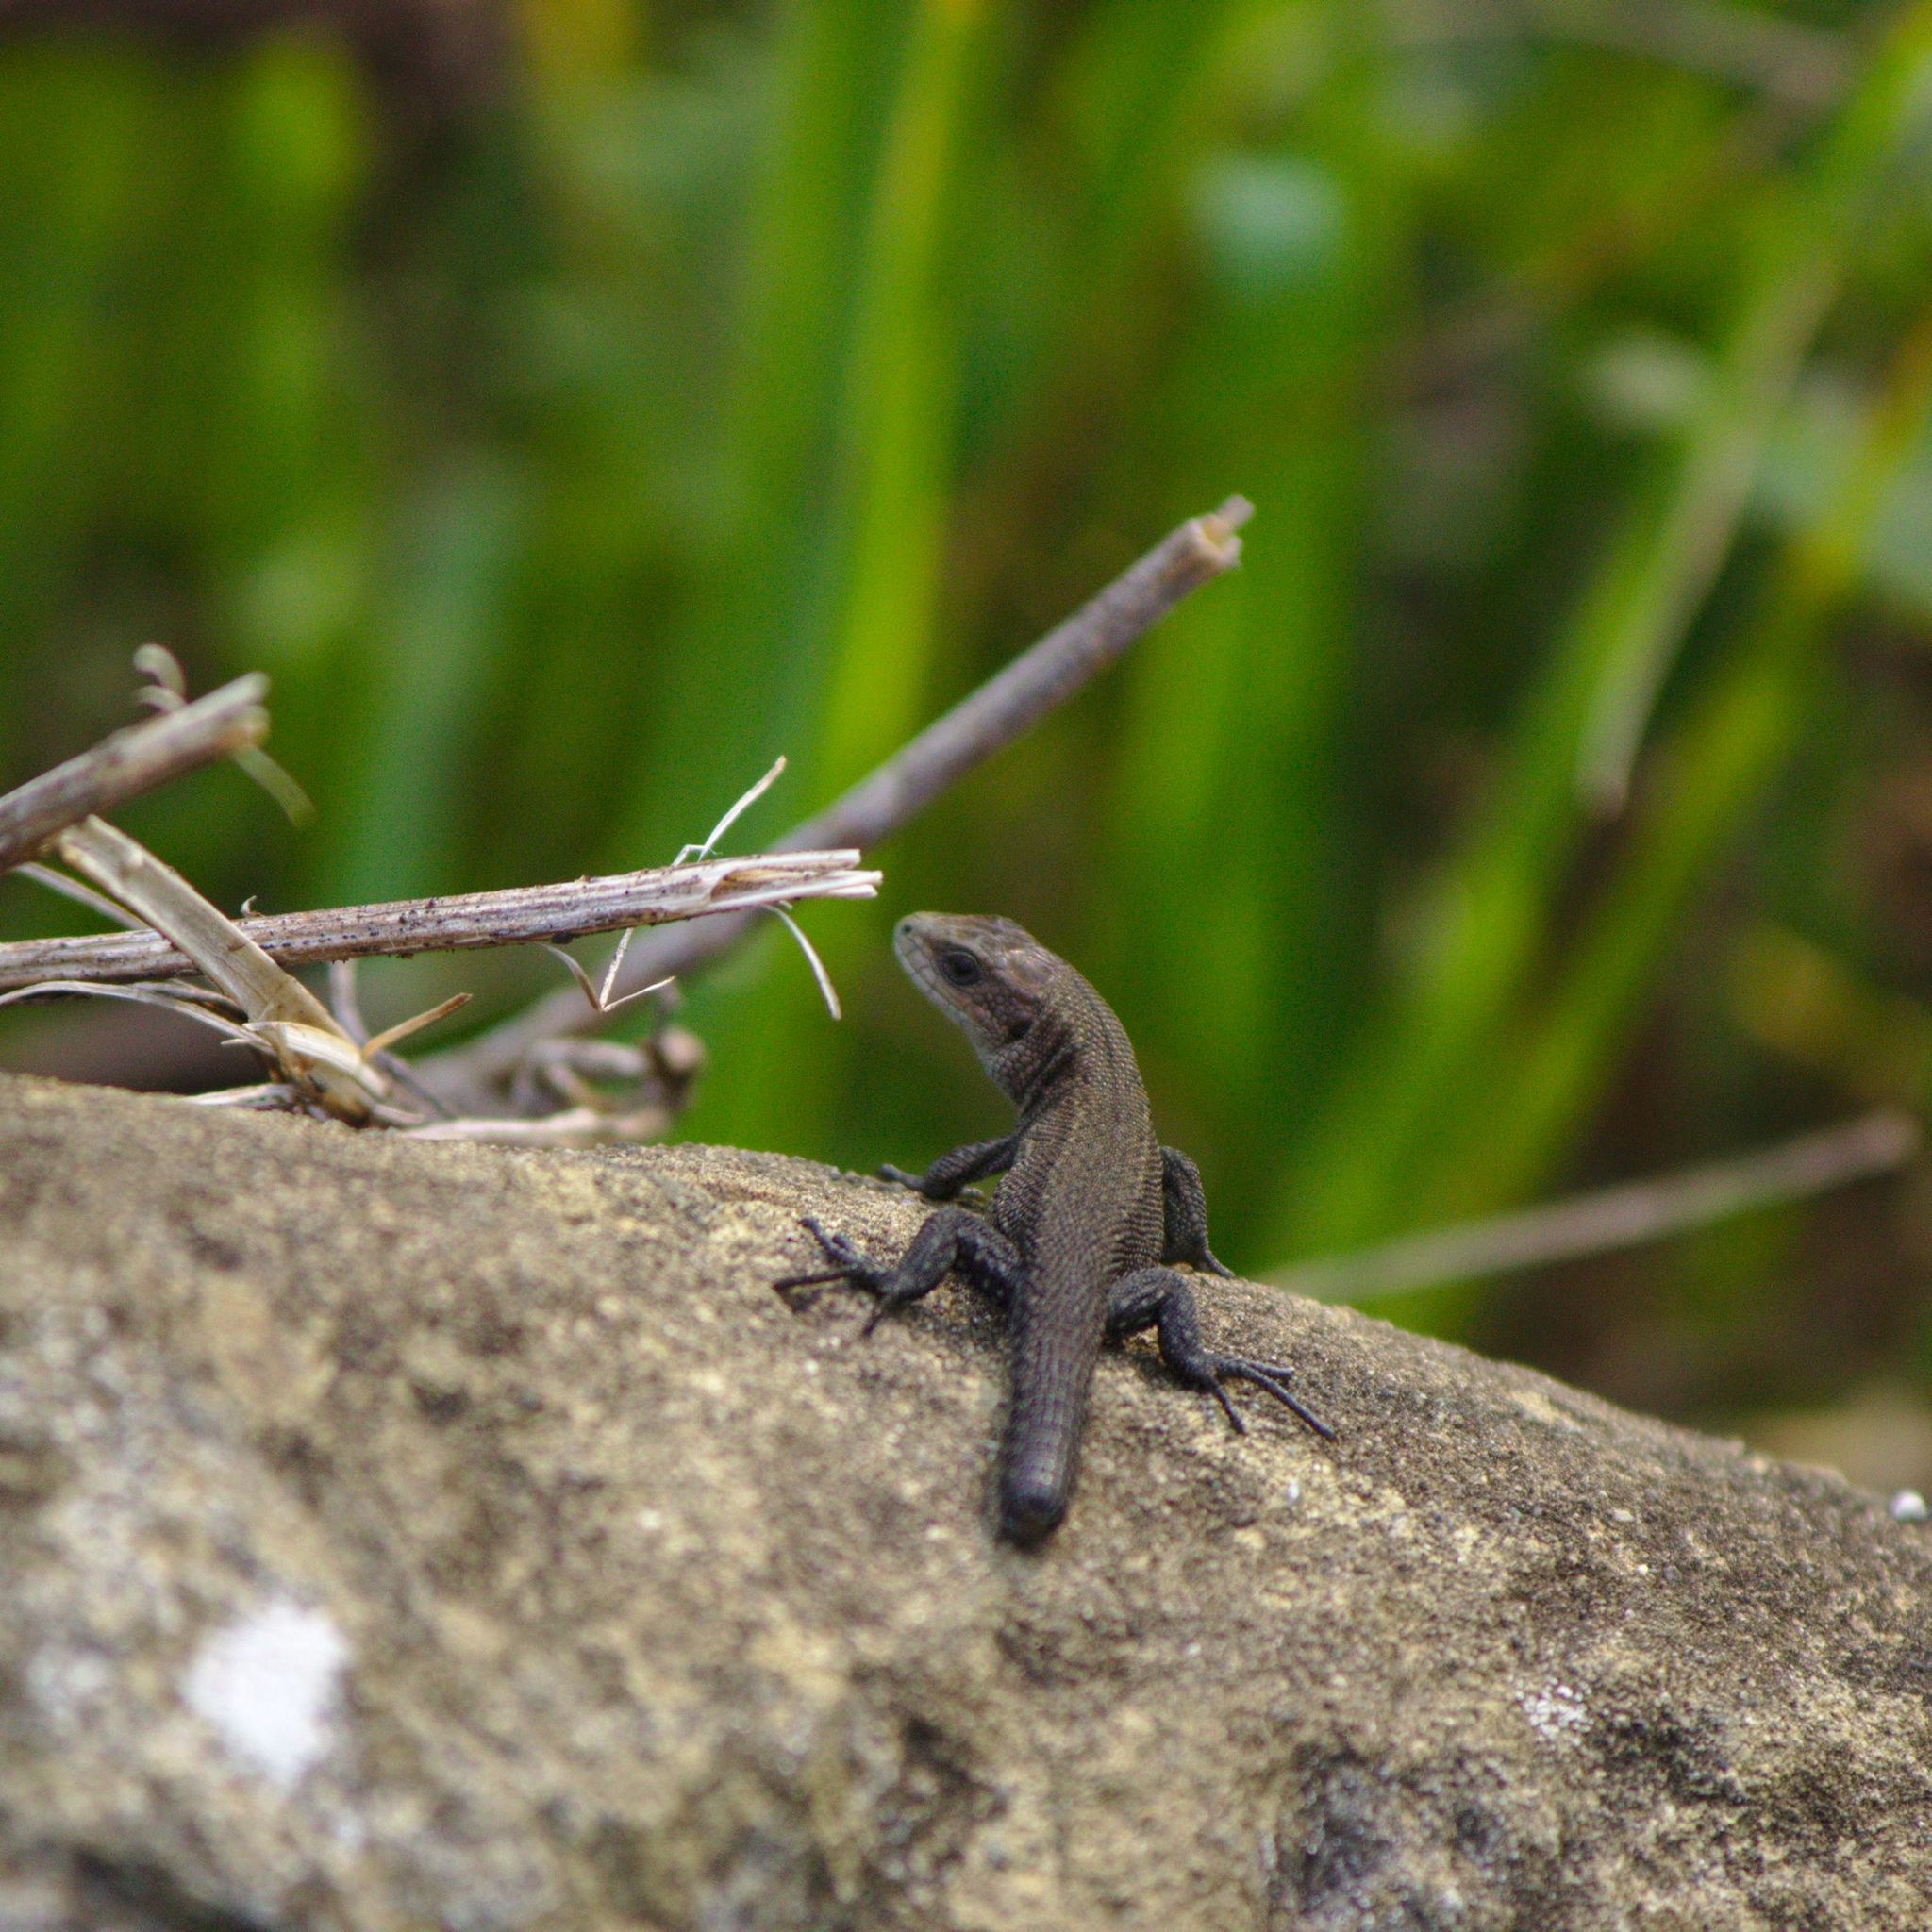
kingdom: Animalia
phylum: Chordata
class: Squamata
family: Lacertidae
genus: Zootoca
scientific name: Zootoca vivipara
